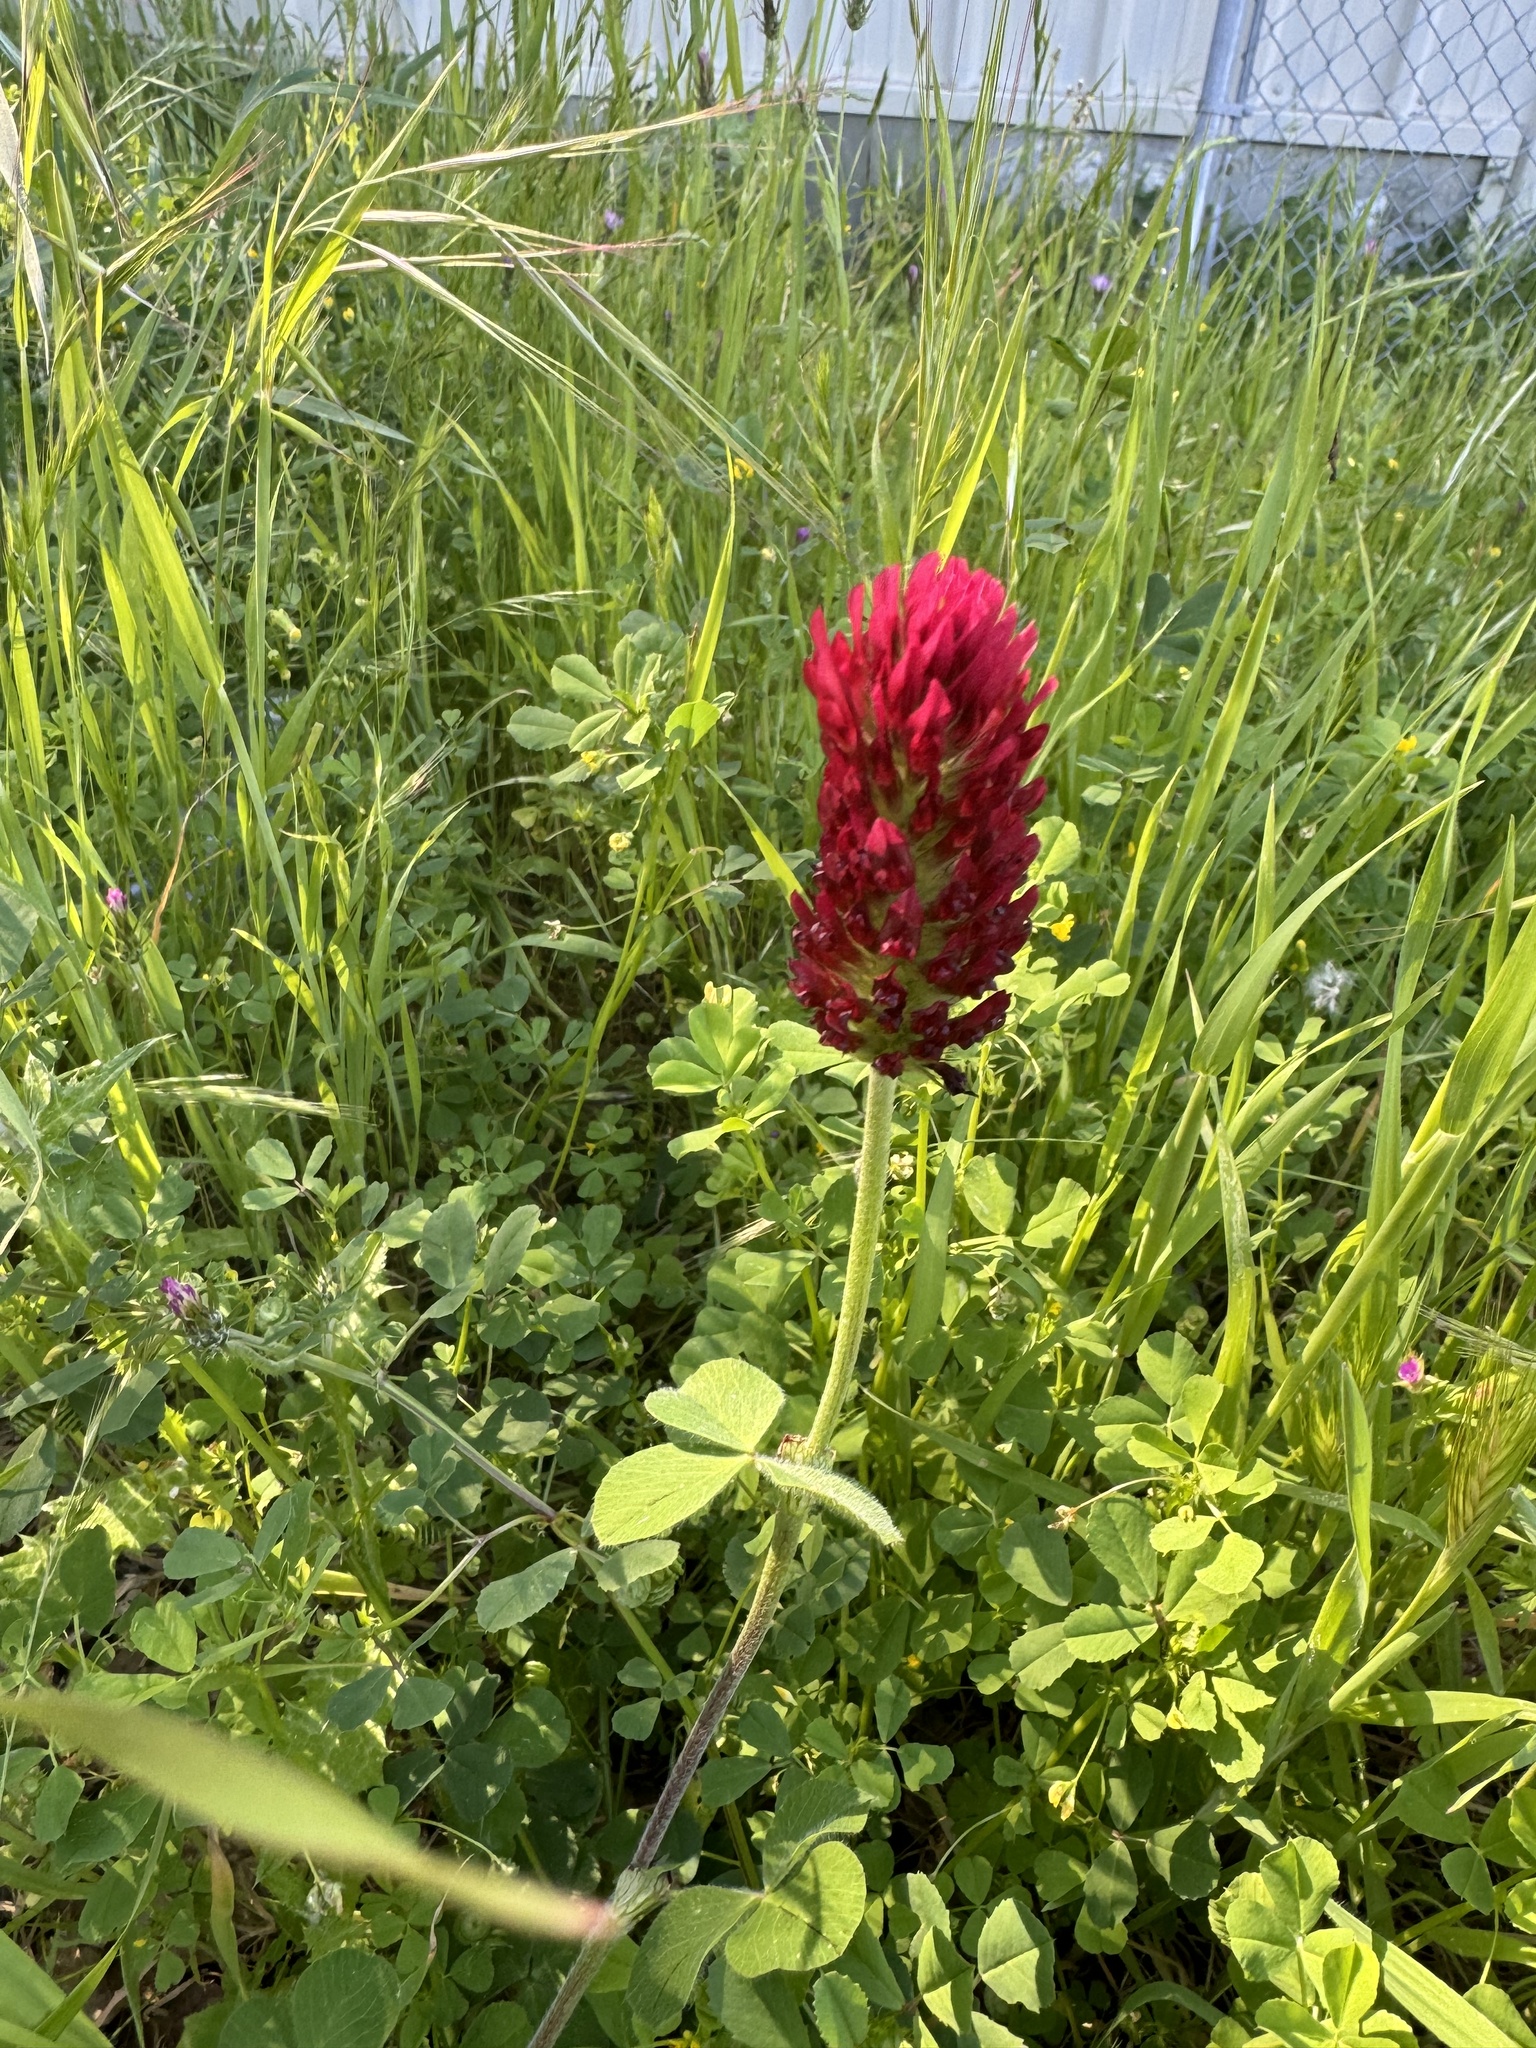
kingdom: Plantae
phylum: Tracheophyta
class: Magnoliopsida
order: Fabales
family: Fabaceae
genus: Trifolium
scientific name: Trifolium incarnatum
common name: Crimson clover
